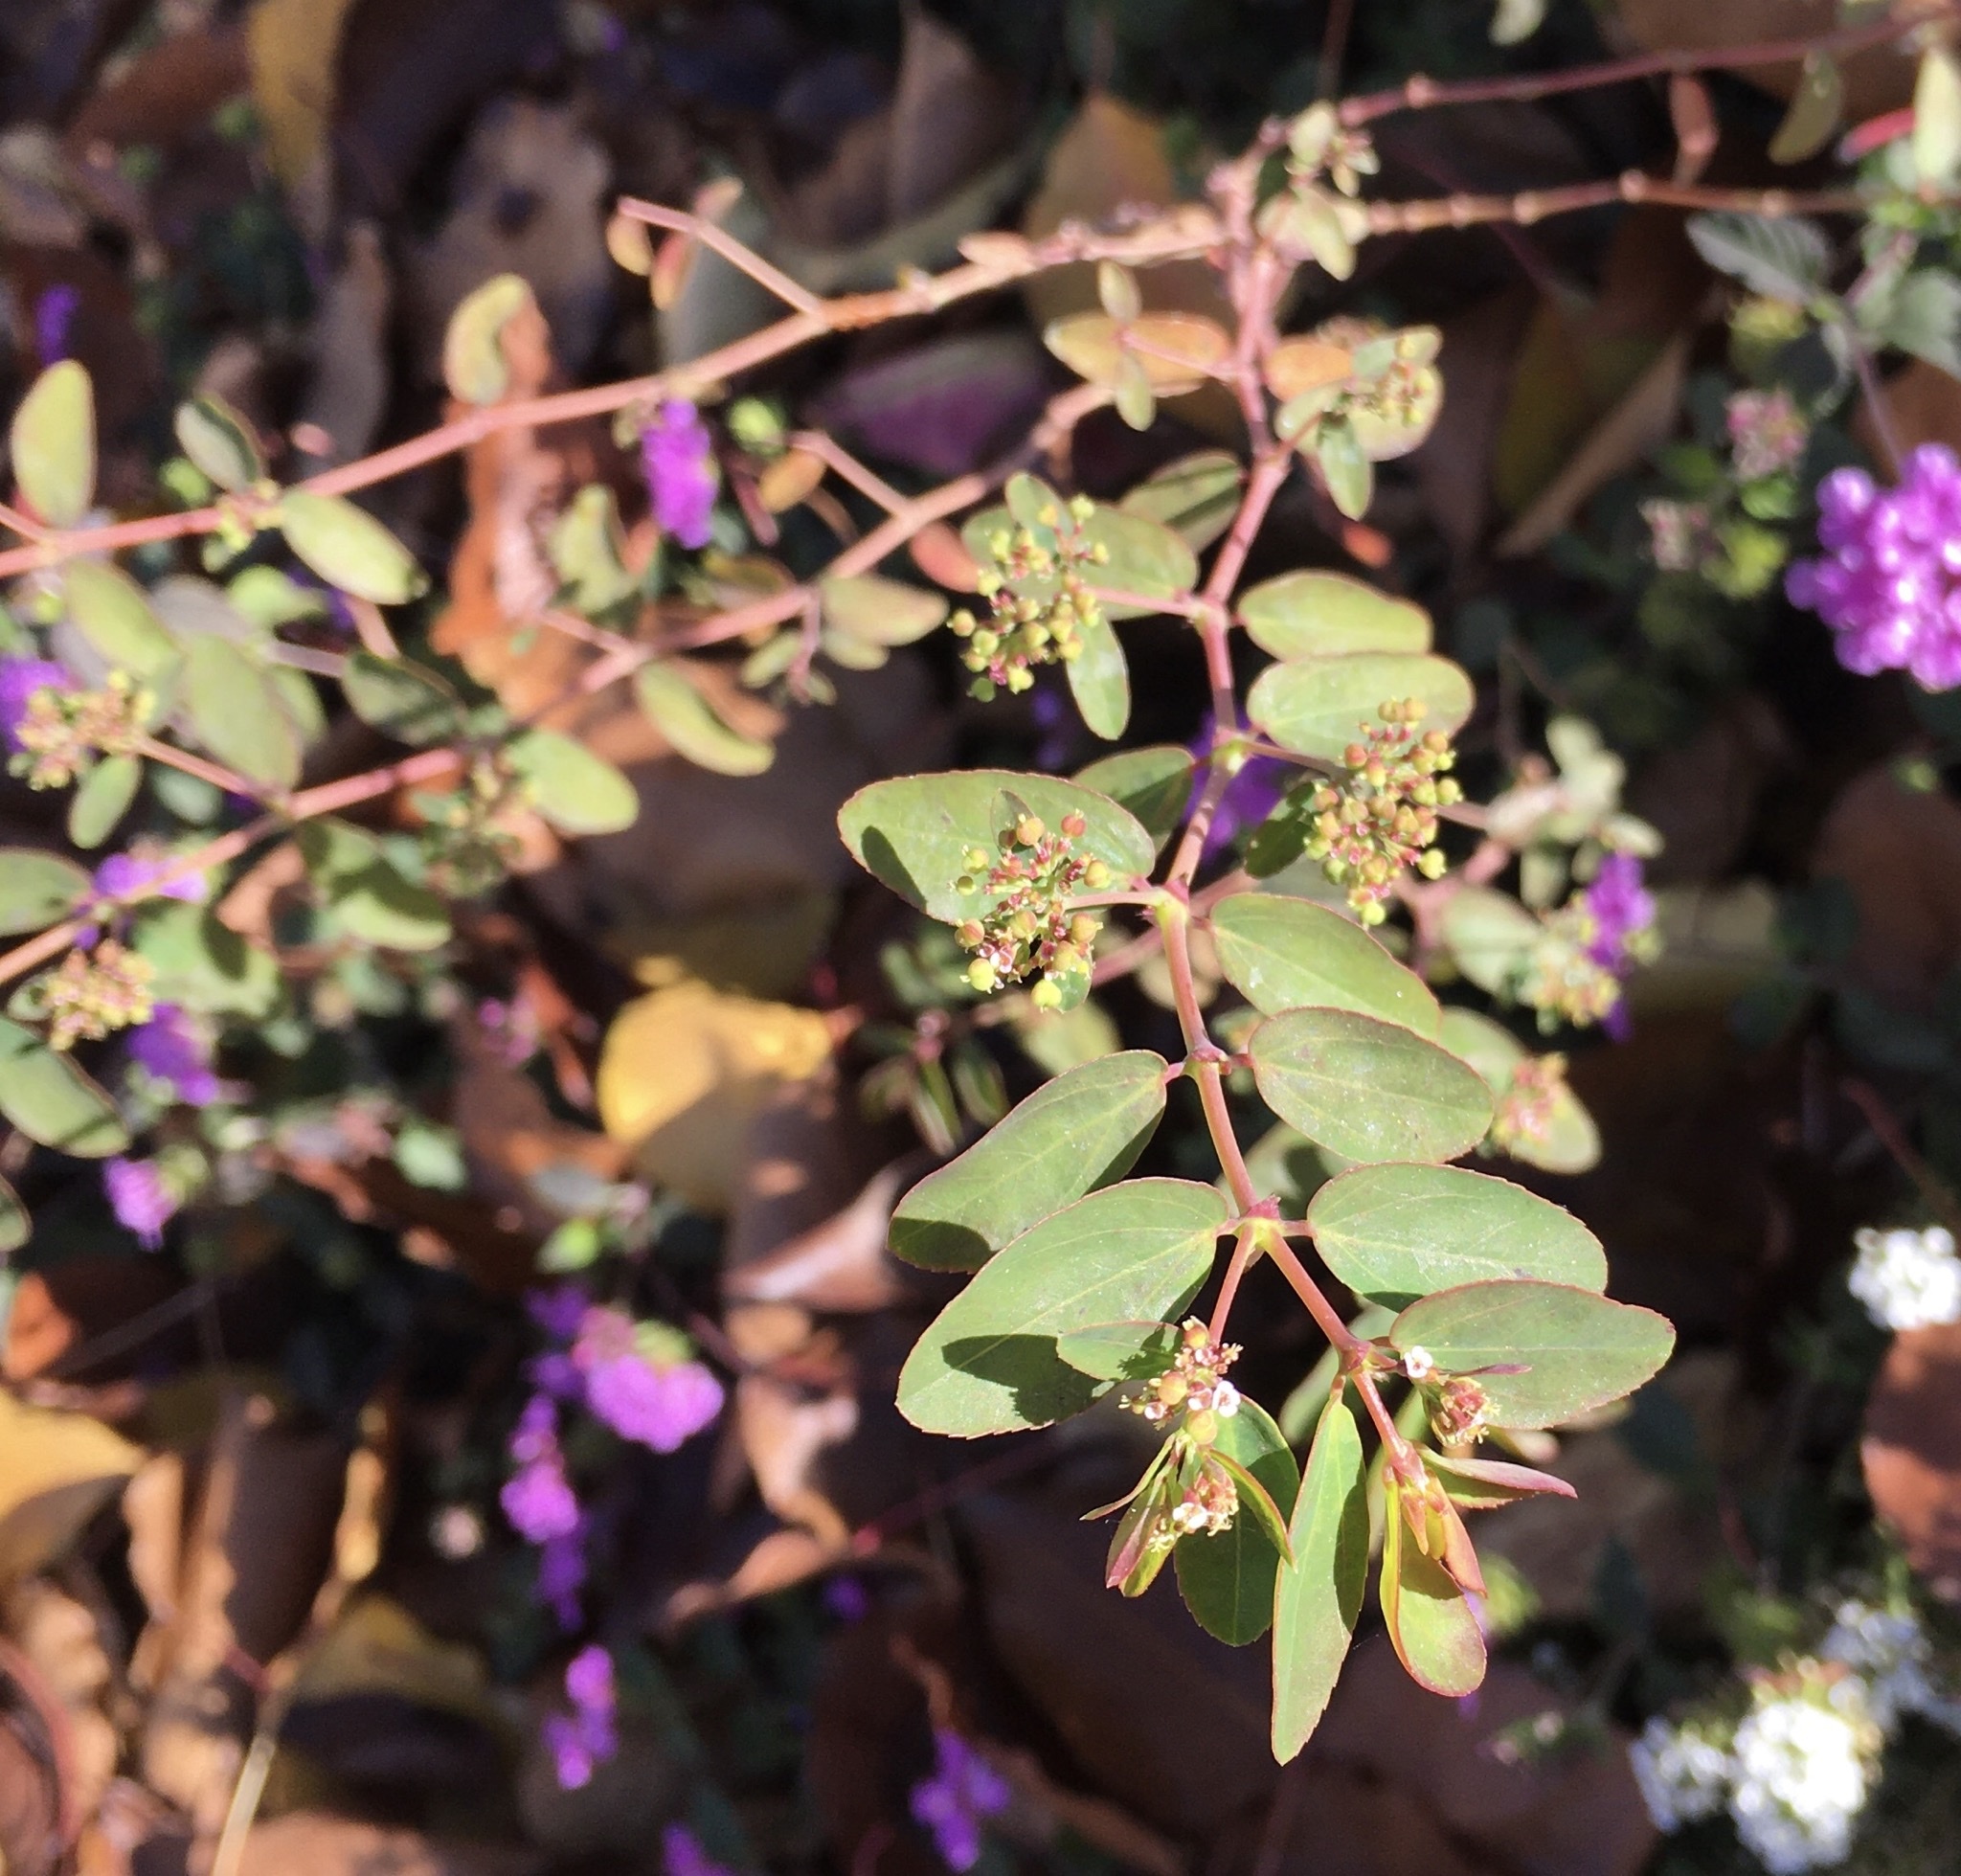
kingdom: Plantae
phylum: Tracheophyta
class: Magnoliopsida
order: Malpighiales
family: Euphorbiaceae
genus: Euphorbia
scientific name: Euphorbia hypericifolia
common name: Graceful sandmat
